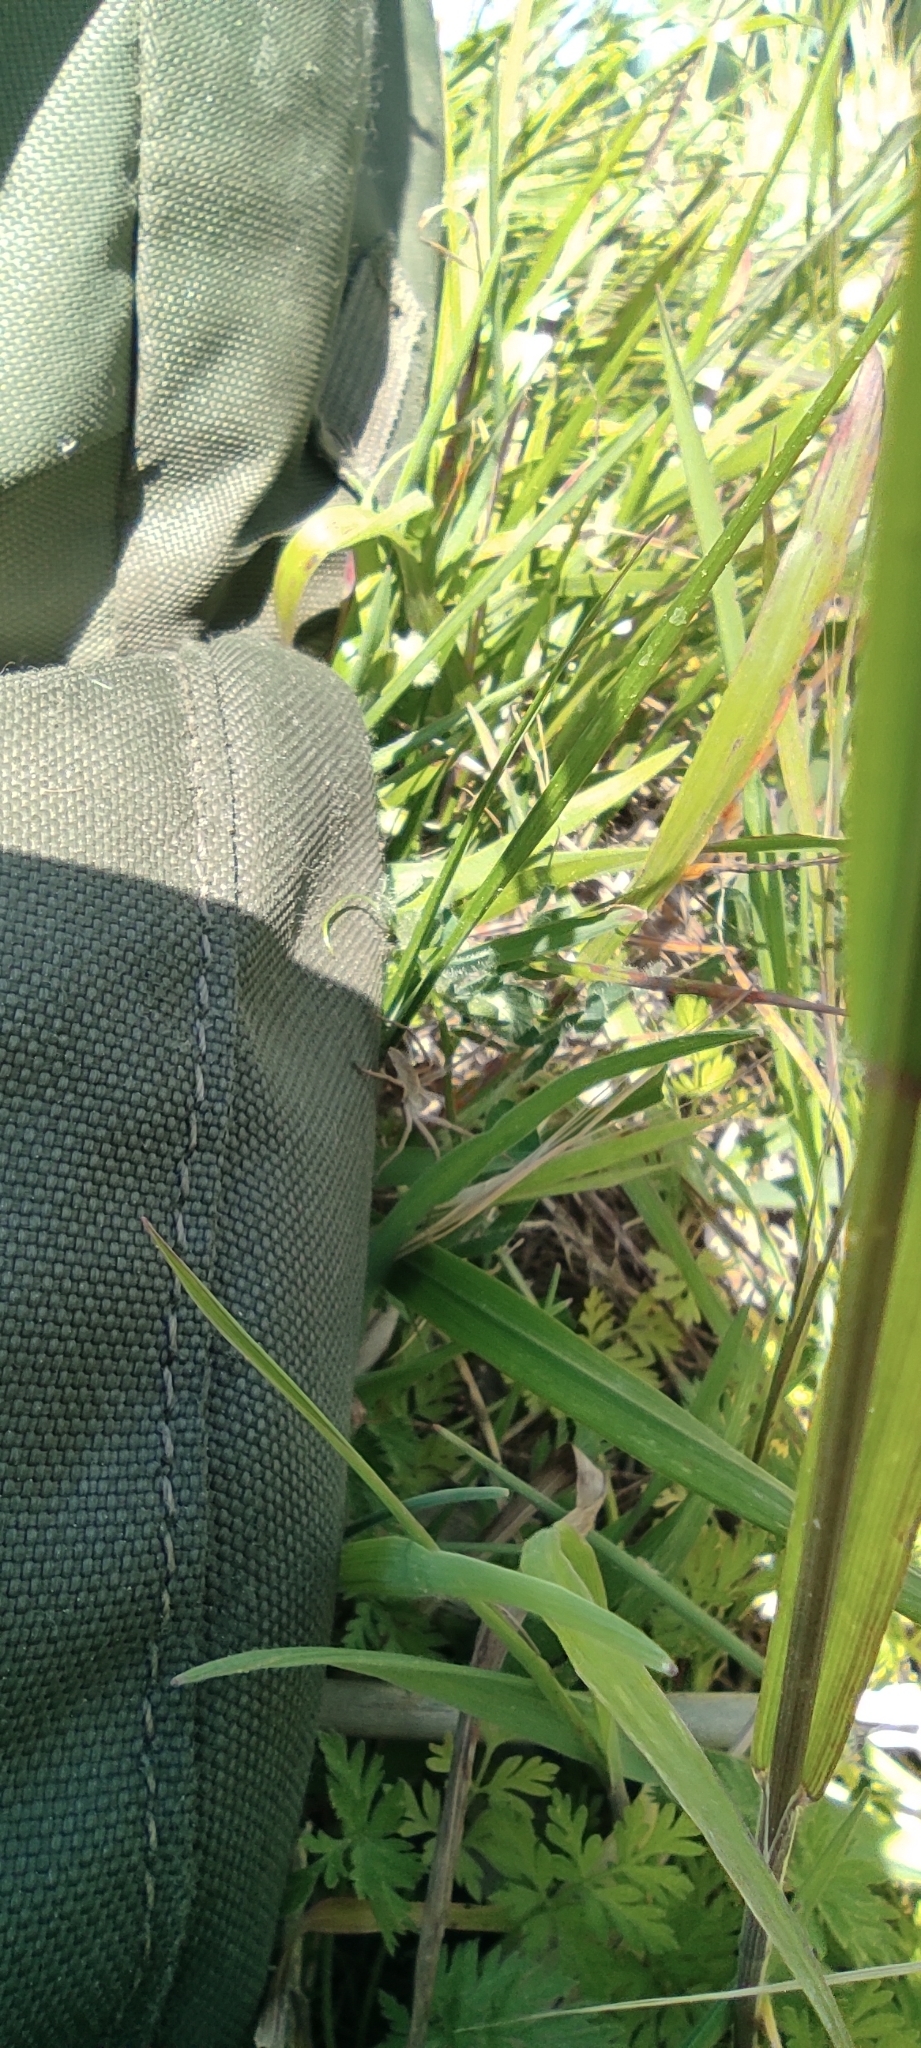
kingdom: Animalia
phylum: Arthropoda
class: Arachnida
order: Araneae
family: Pisauridae
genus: Pisaura
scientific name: Pisaura
